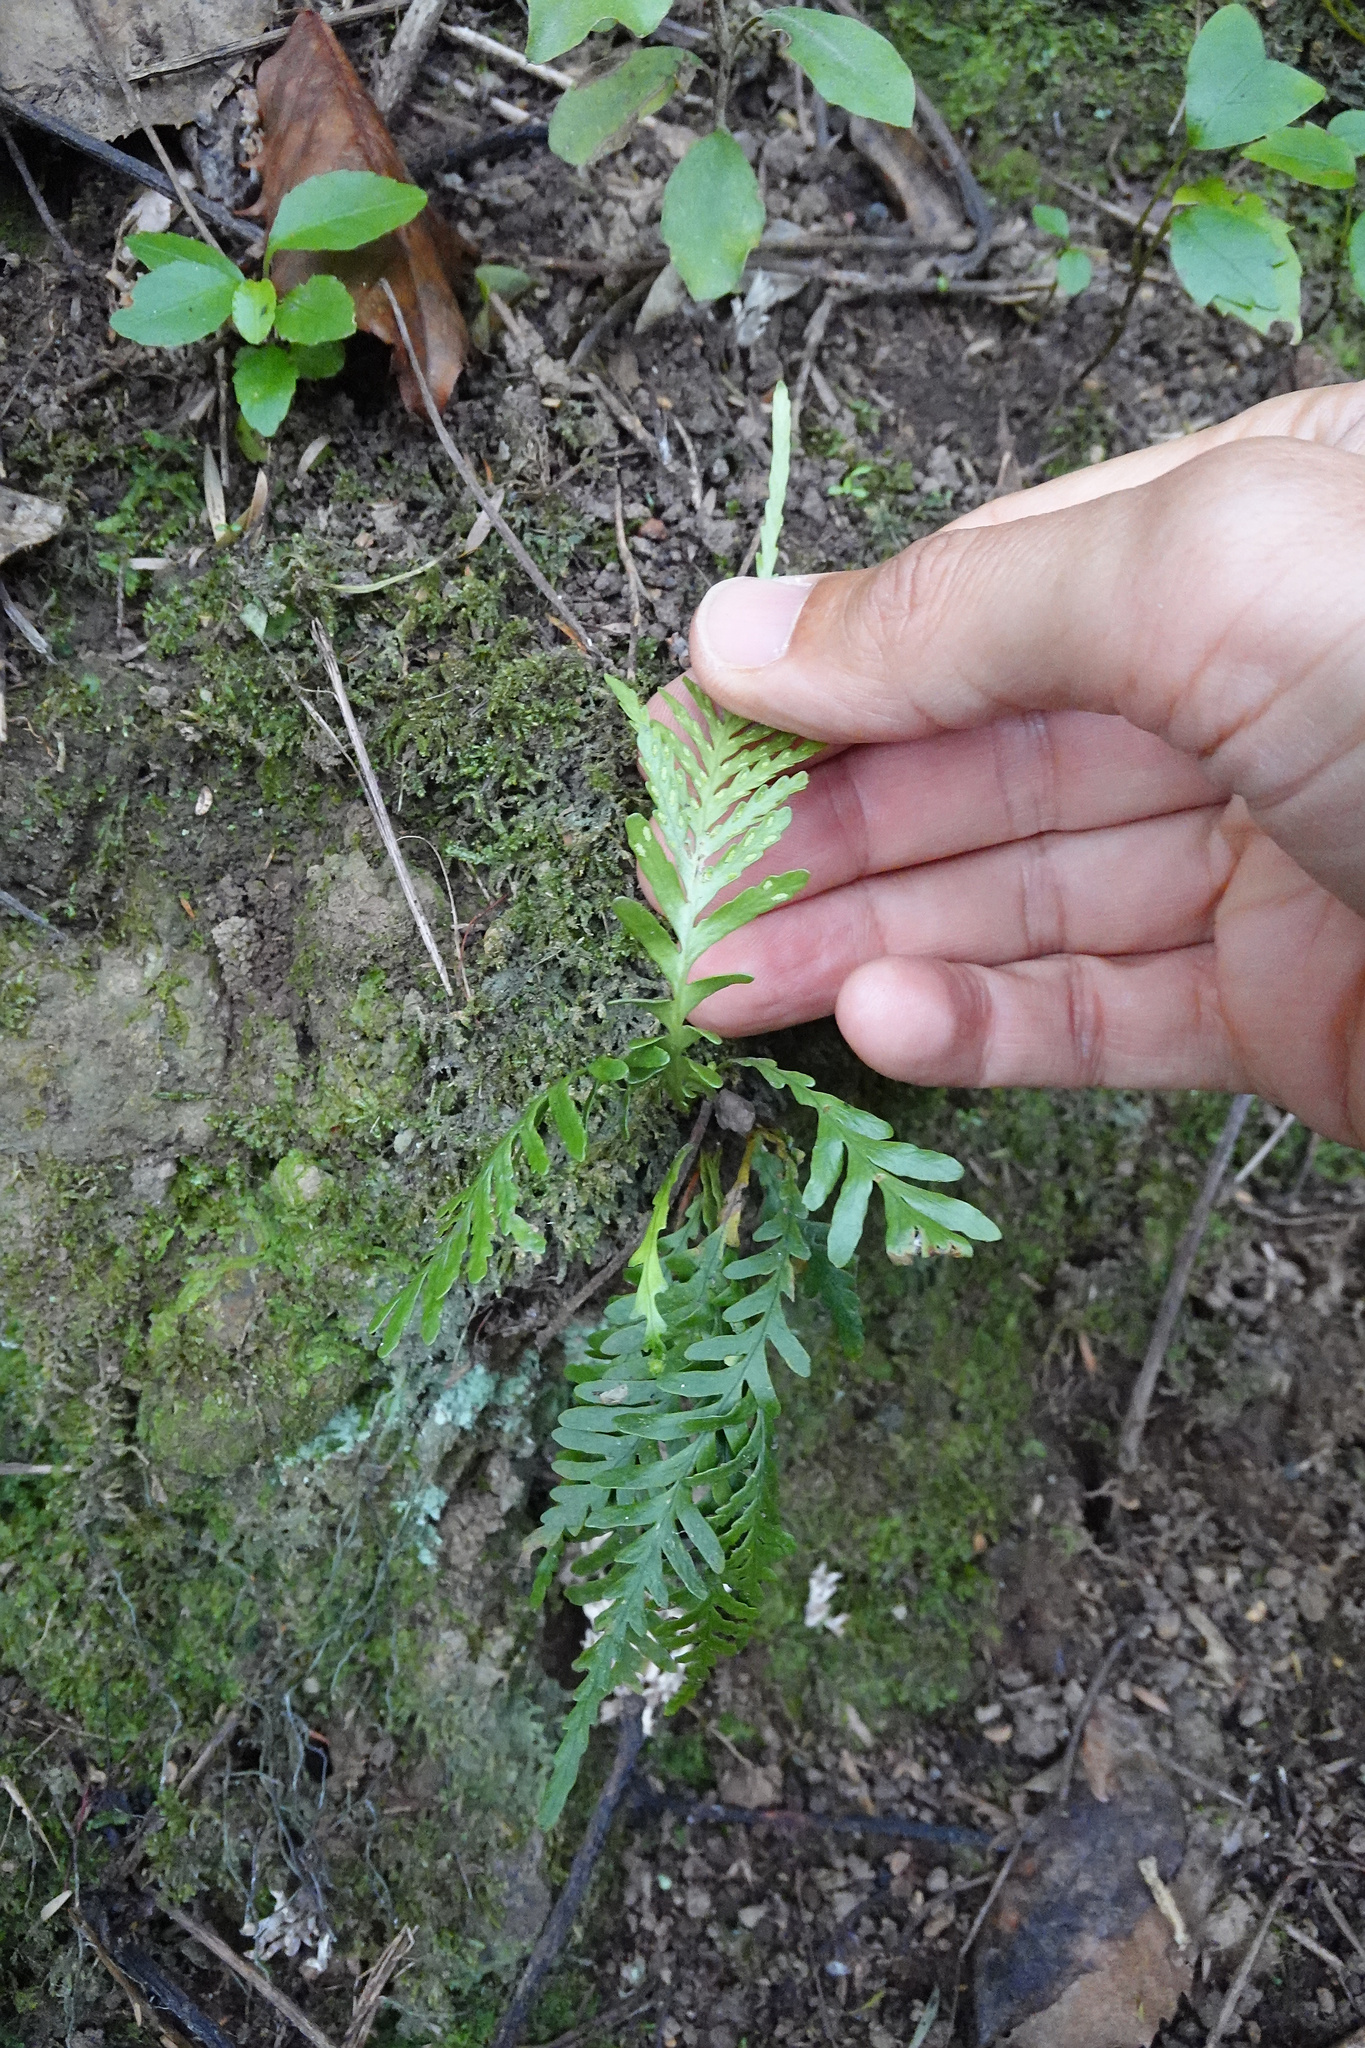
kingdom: Plantae
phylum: Tracheophyta
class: Polypodiopsida
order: Polypodiales
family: Polypodiaceae
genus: Notogrammitis
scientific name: Notogrammitis heterophylla
